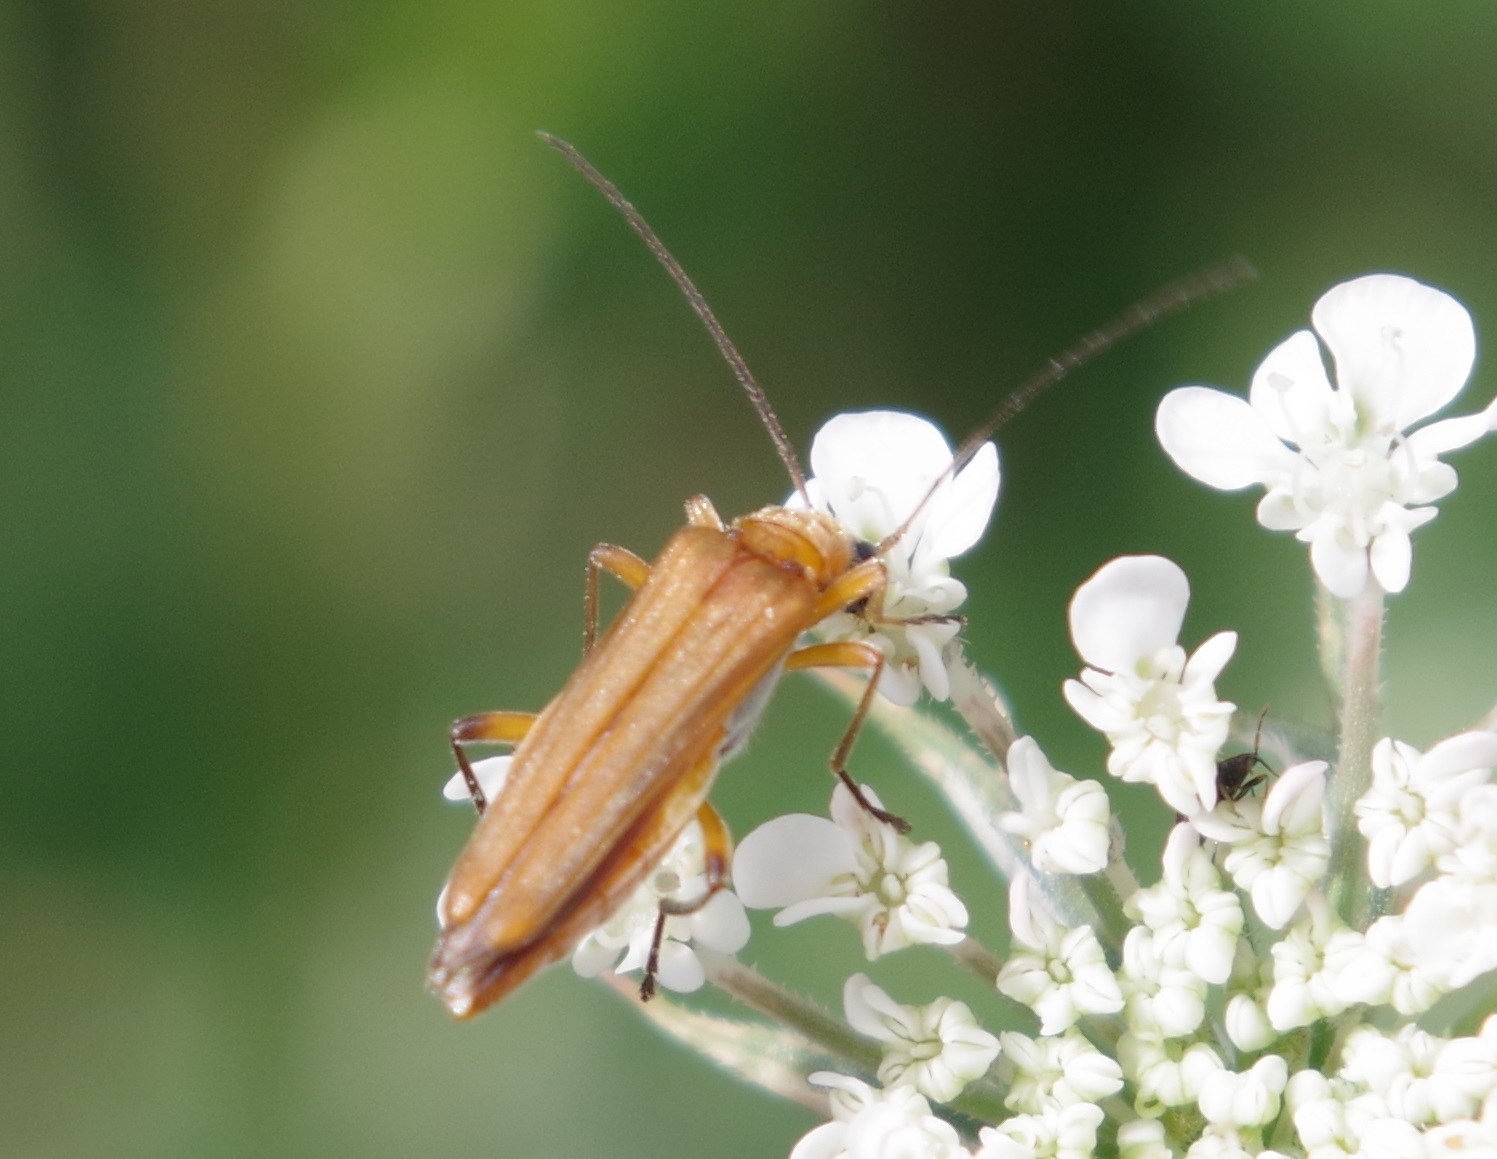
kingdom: Animalia
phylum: Arthropoda
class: Insecta
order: Coleoptera
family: Oedemeridae
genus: Oedemera
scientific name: Oedemera podagrariae
